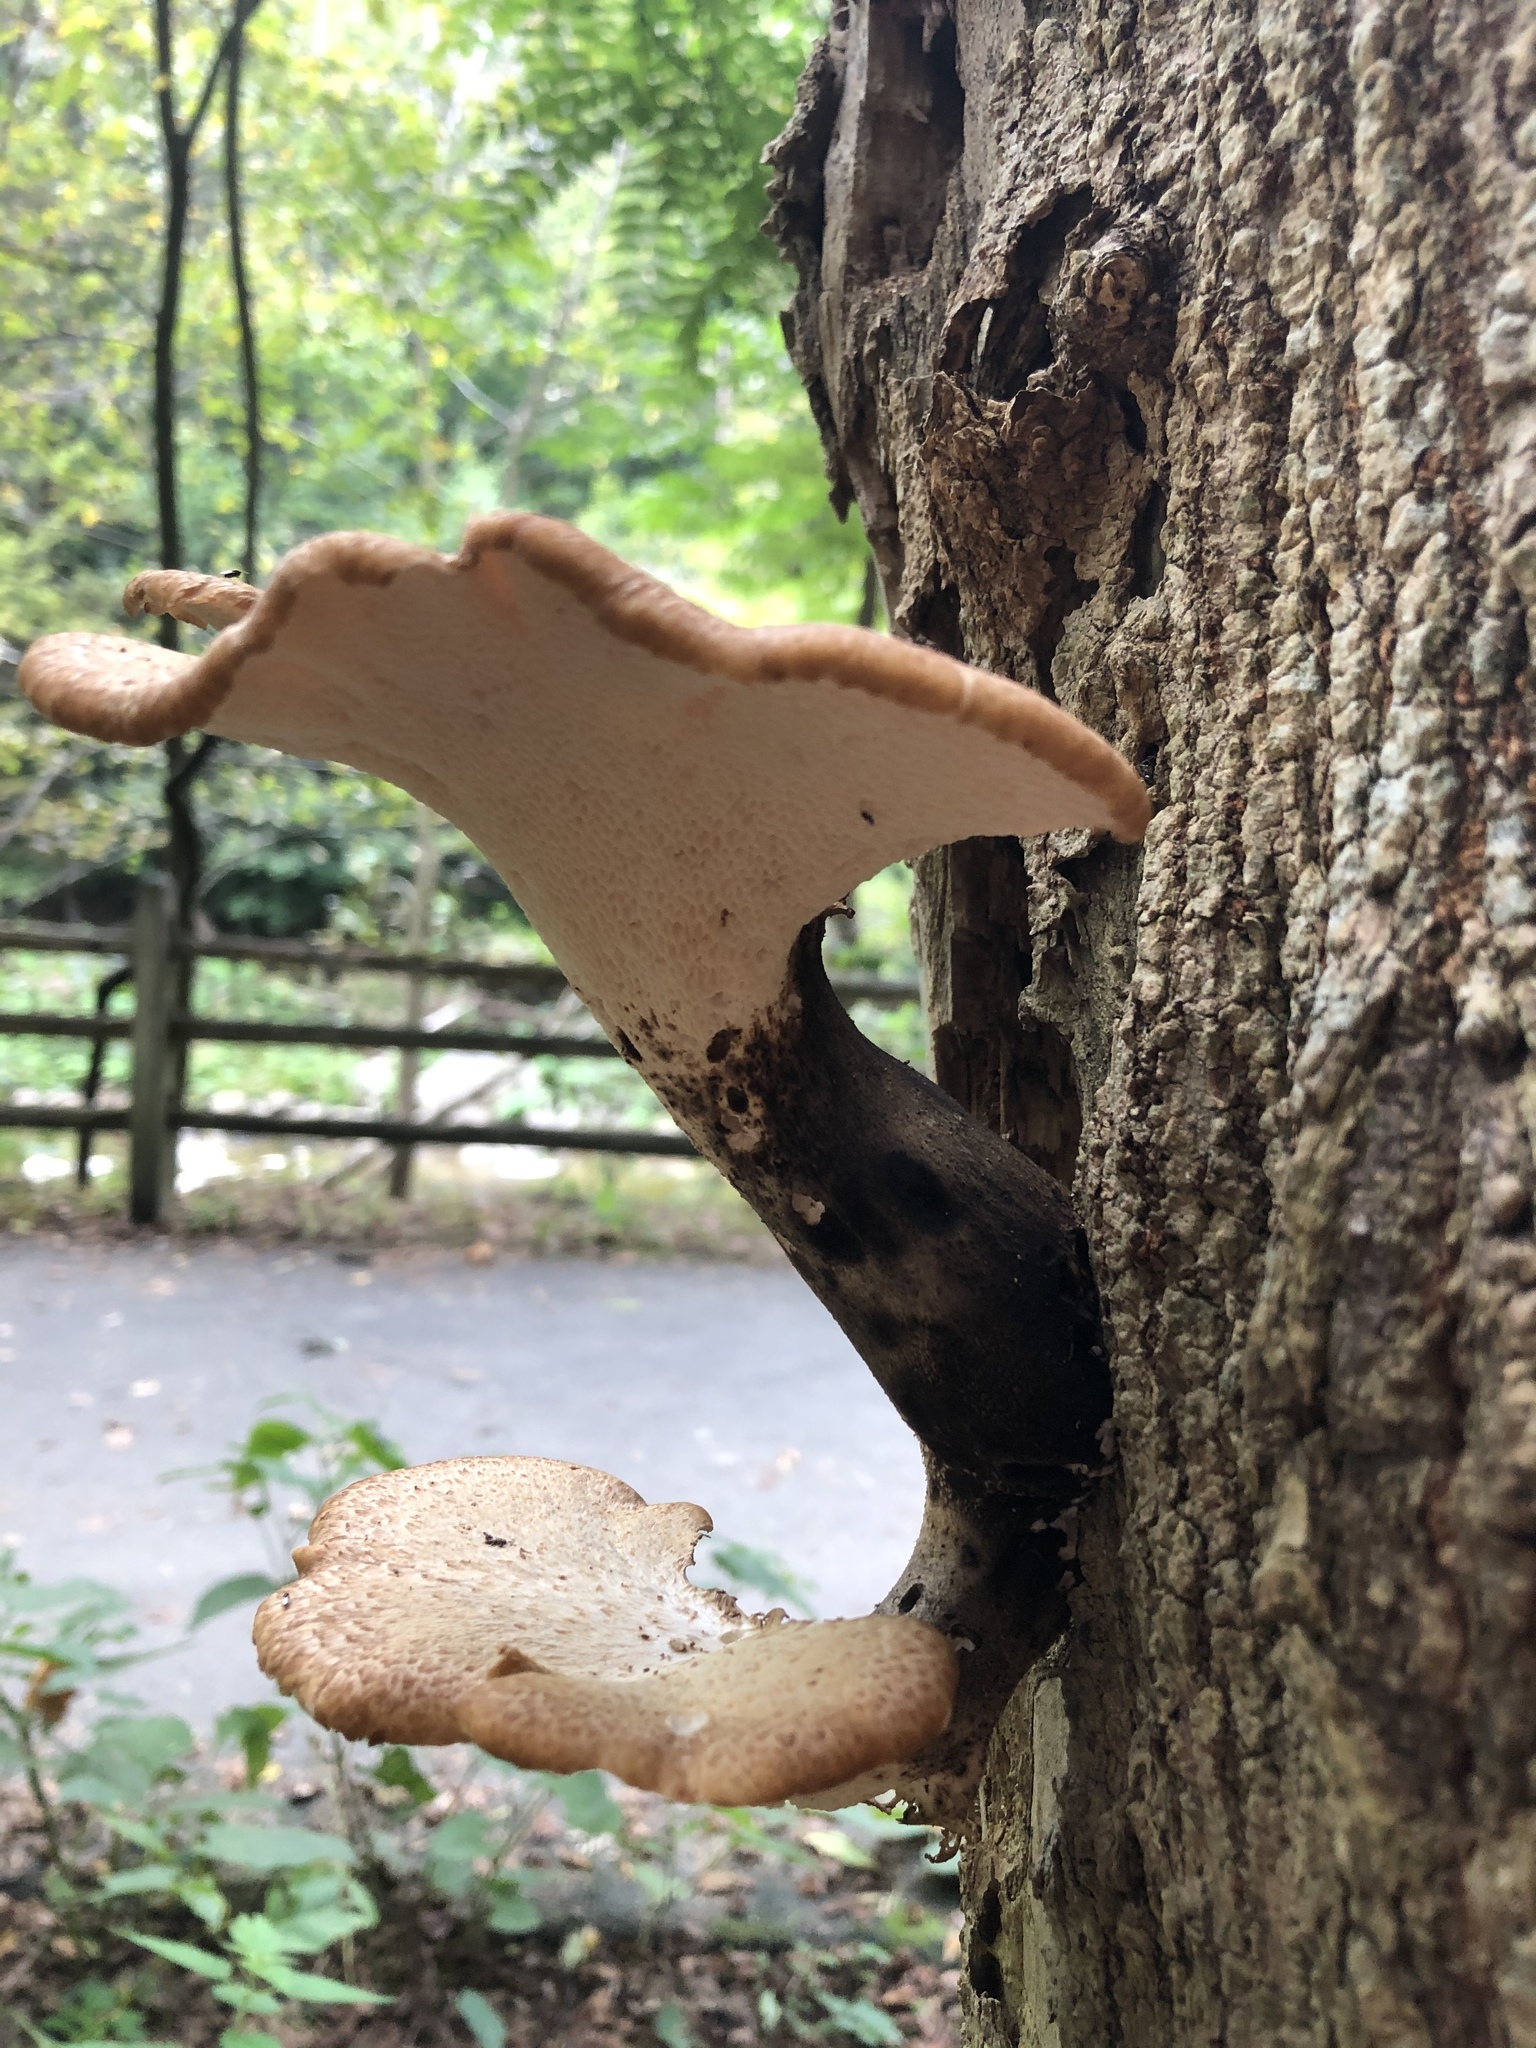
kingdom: Fungi
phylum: Basidiomycota
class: Agaricomycetes
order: Polyporales
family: Polyporaceae
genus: Cerioporus
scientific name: Cerioporus squamosus
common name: Dryad's saddle
